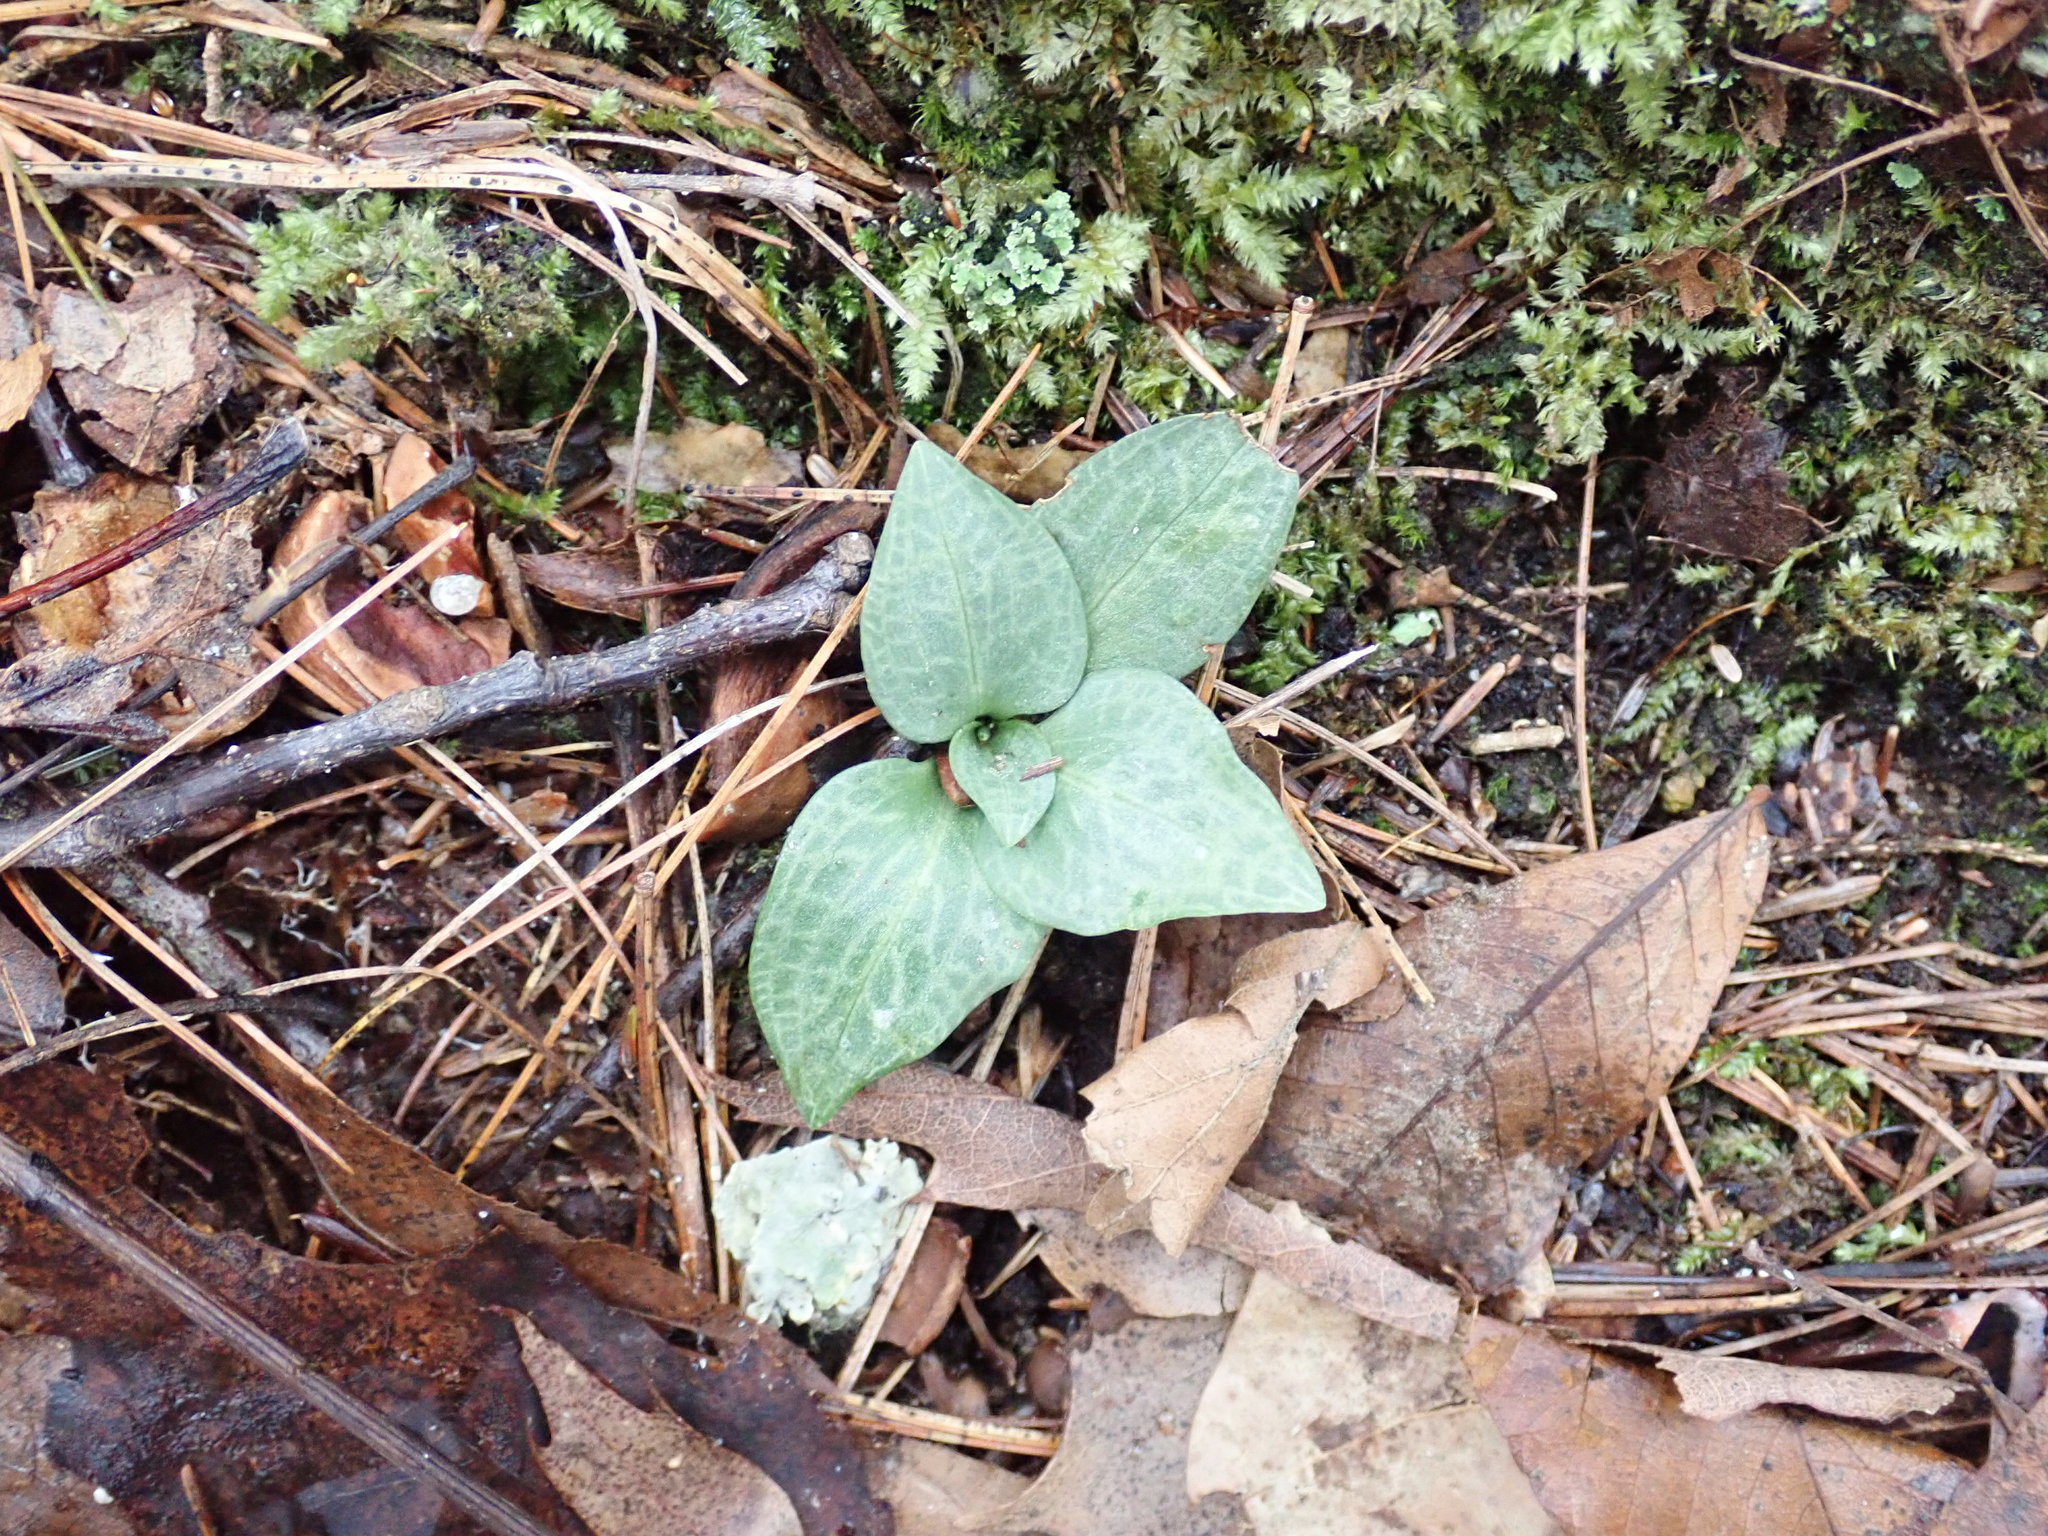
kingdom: Plantae
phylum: Tracheophyta
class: Liliopsida
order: Asparagales
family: Orchidaceae
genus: Goodyera
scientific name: Goodyera tesselata
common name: Checkered rattlesnake-plantain
